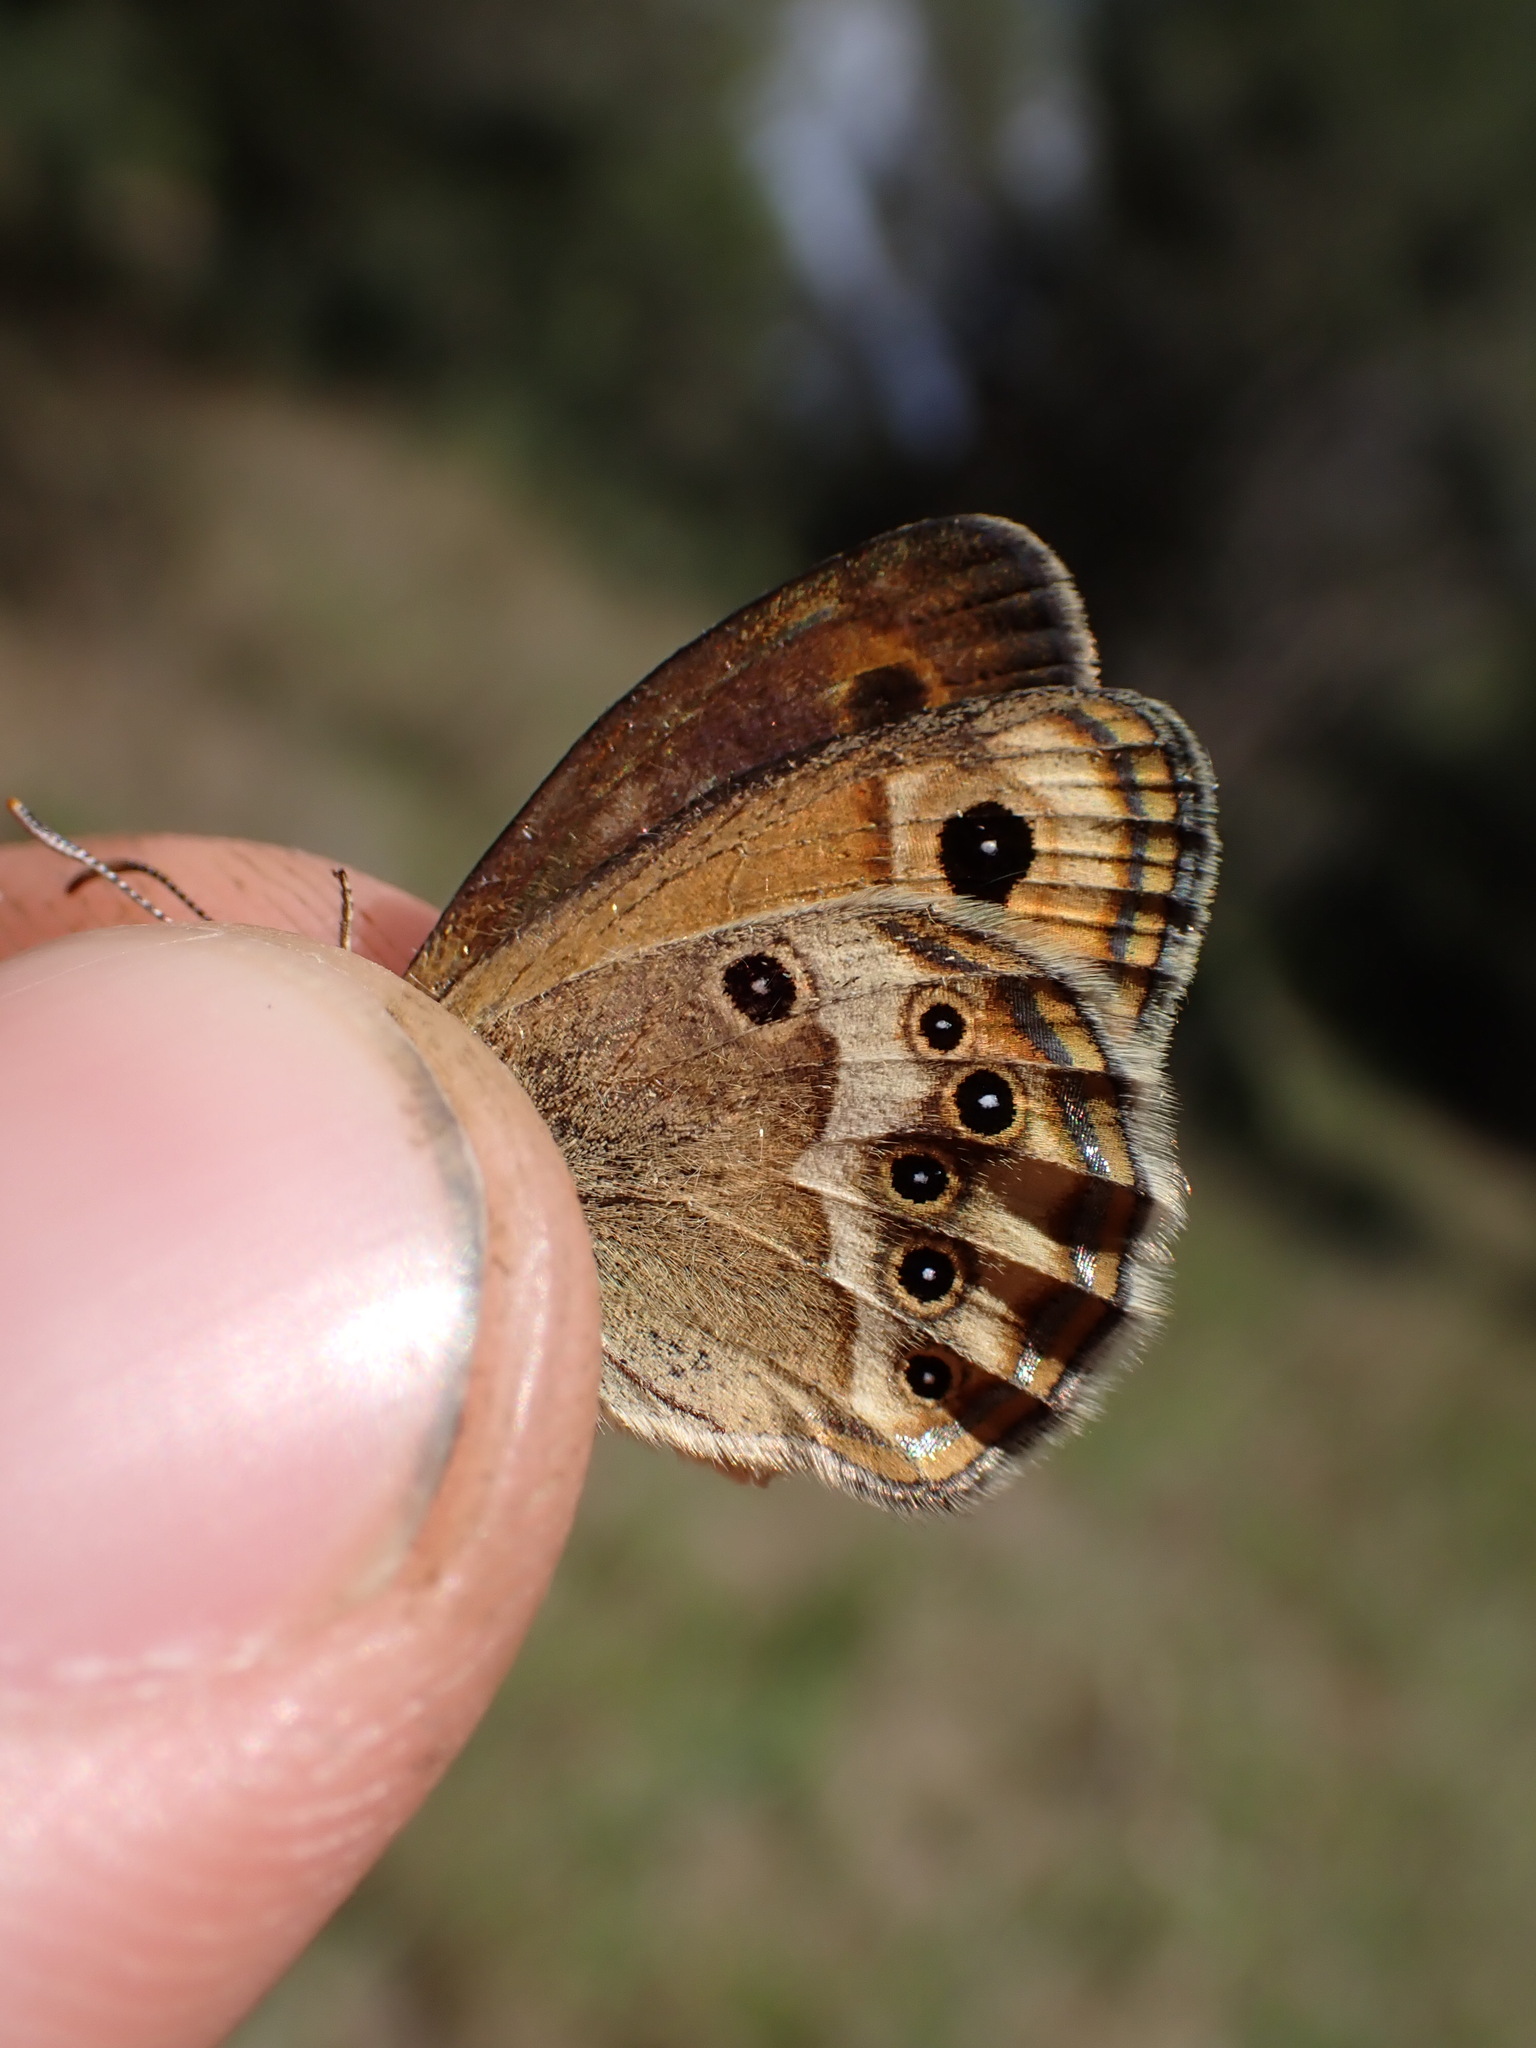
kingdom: Animalia
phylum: Arthropoda
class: Insecta
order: Lepidoptera
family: Nymphalidae
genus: Coenonympha
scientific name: Coenonympha dorus
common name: Dusky heath
